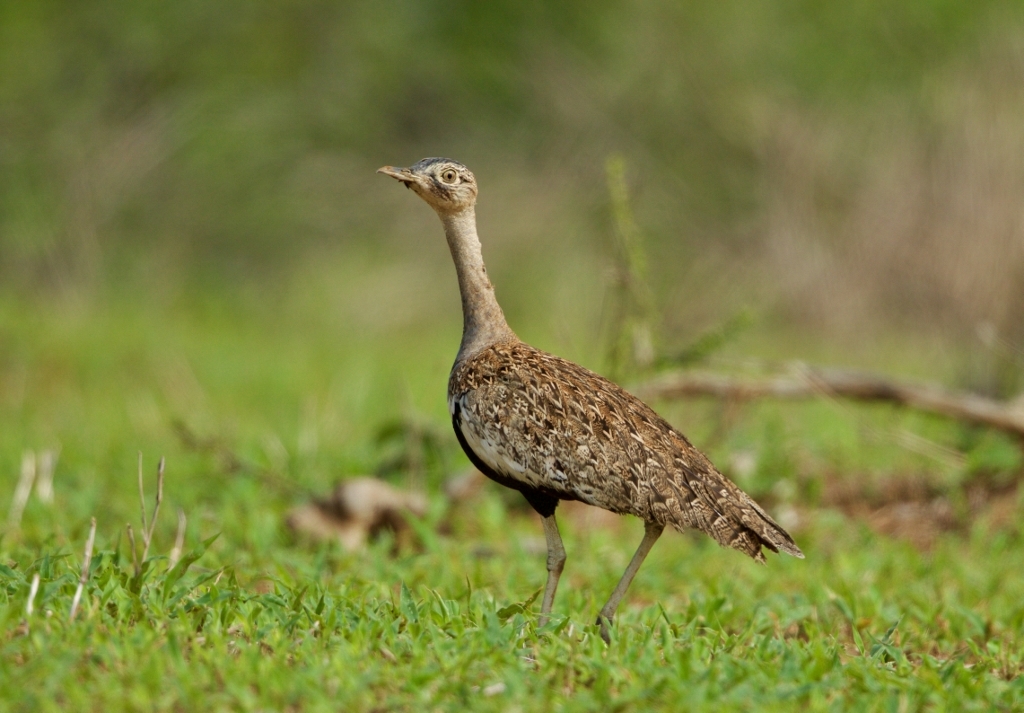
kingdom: Animalia
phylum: Chordata
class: Aves
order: Otidiformes
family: Otididae
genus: Lophotis
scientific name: Lophotis ruficrista
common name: Red-crested korhaan
